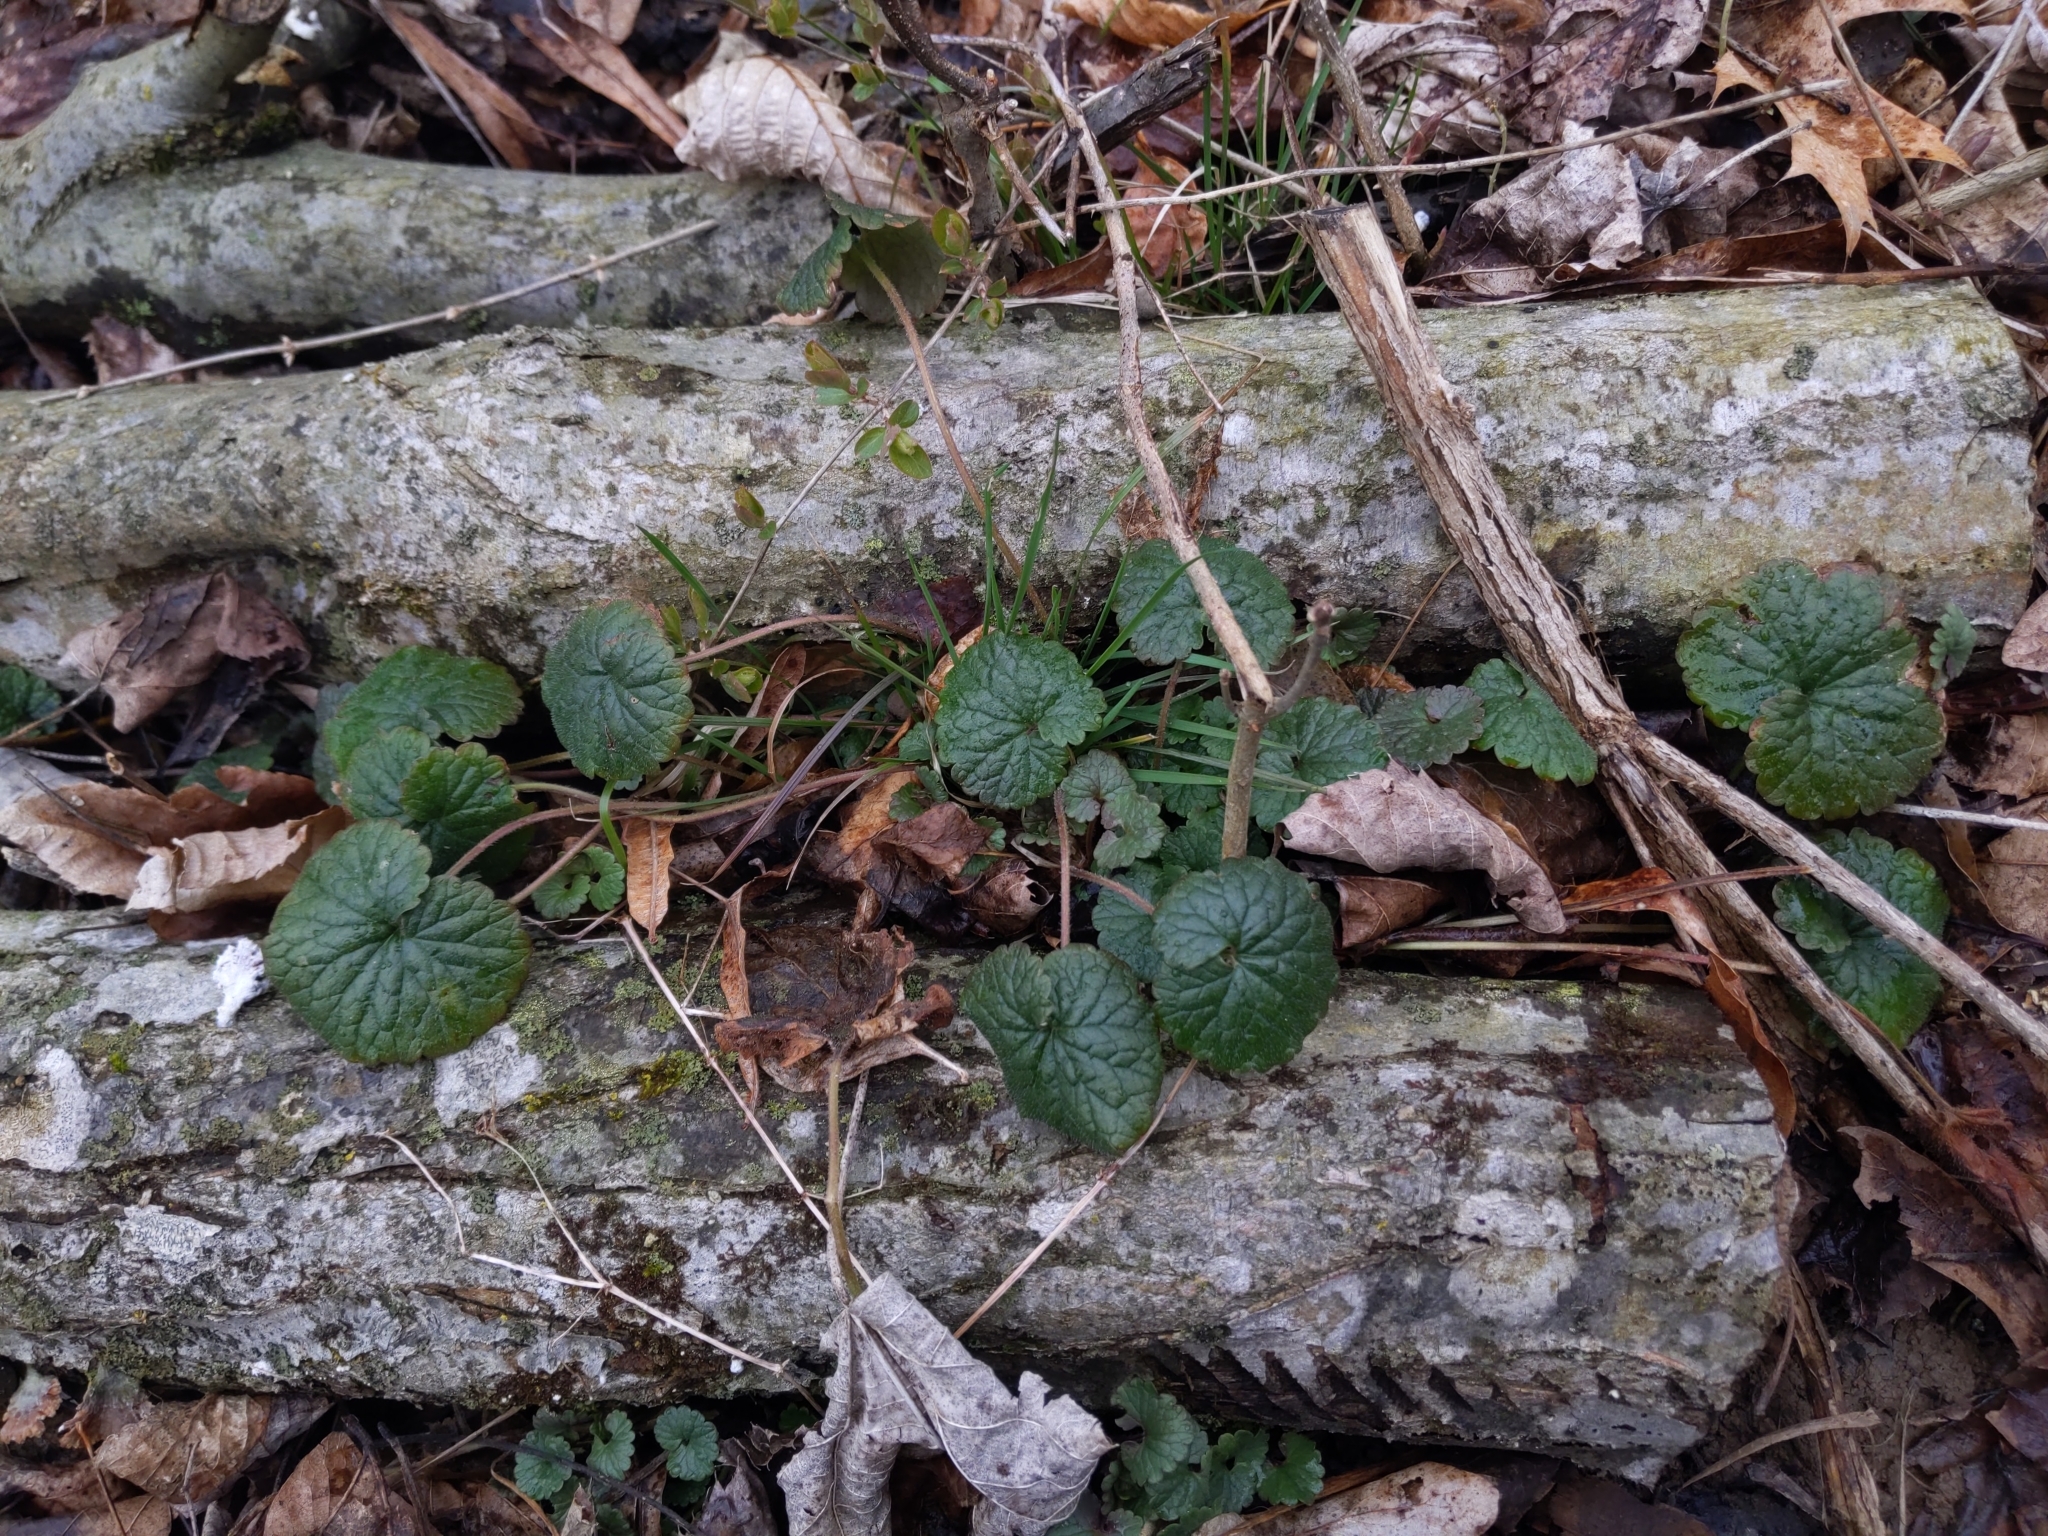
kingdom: Plantae
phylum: Tracheophyta
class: Magnoliopsida
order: Lamiales
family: Lamiaceae
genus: Glechoma
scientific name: Glechoma hederacea
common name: Ground ivy
